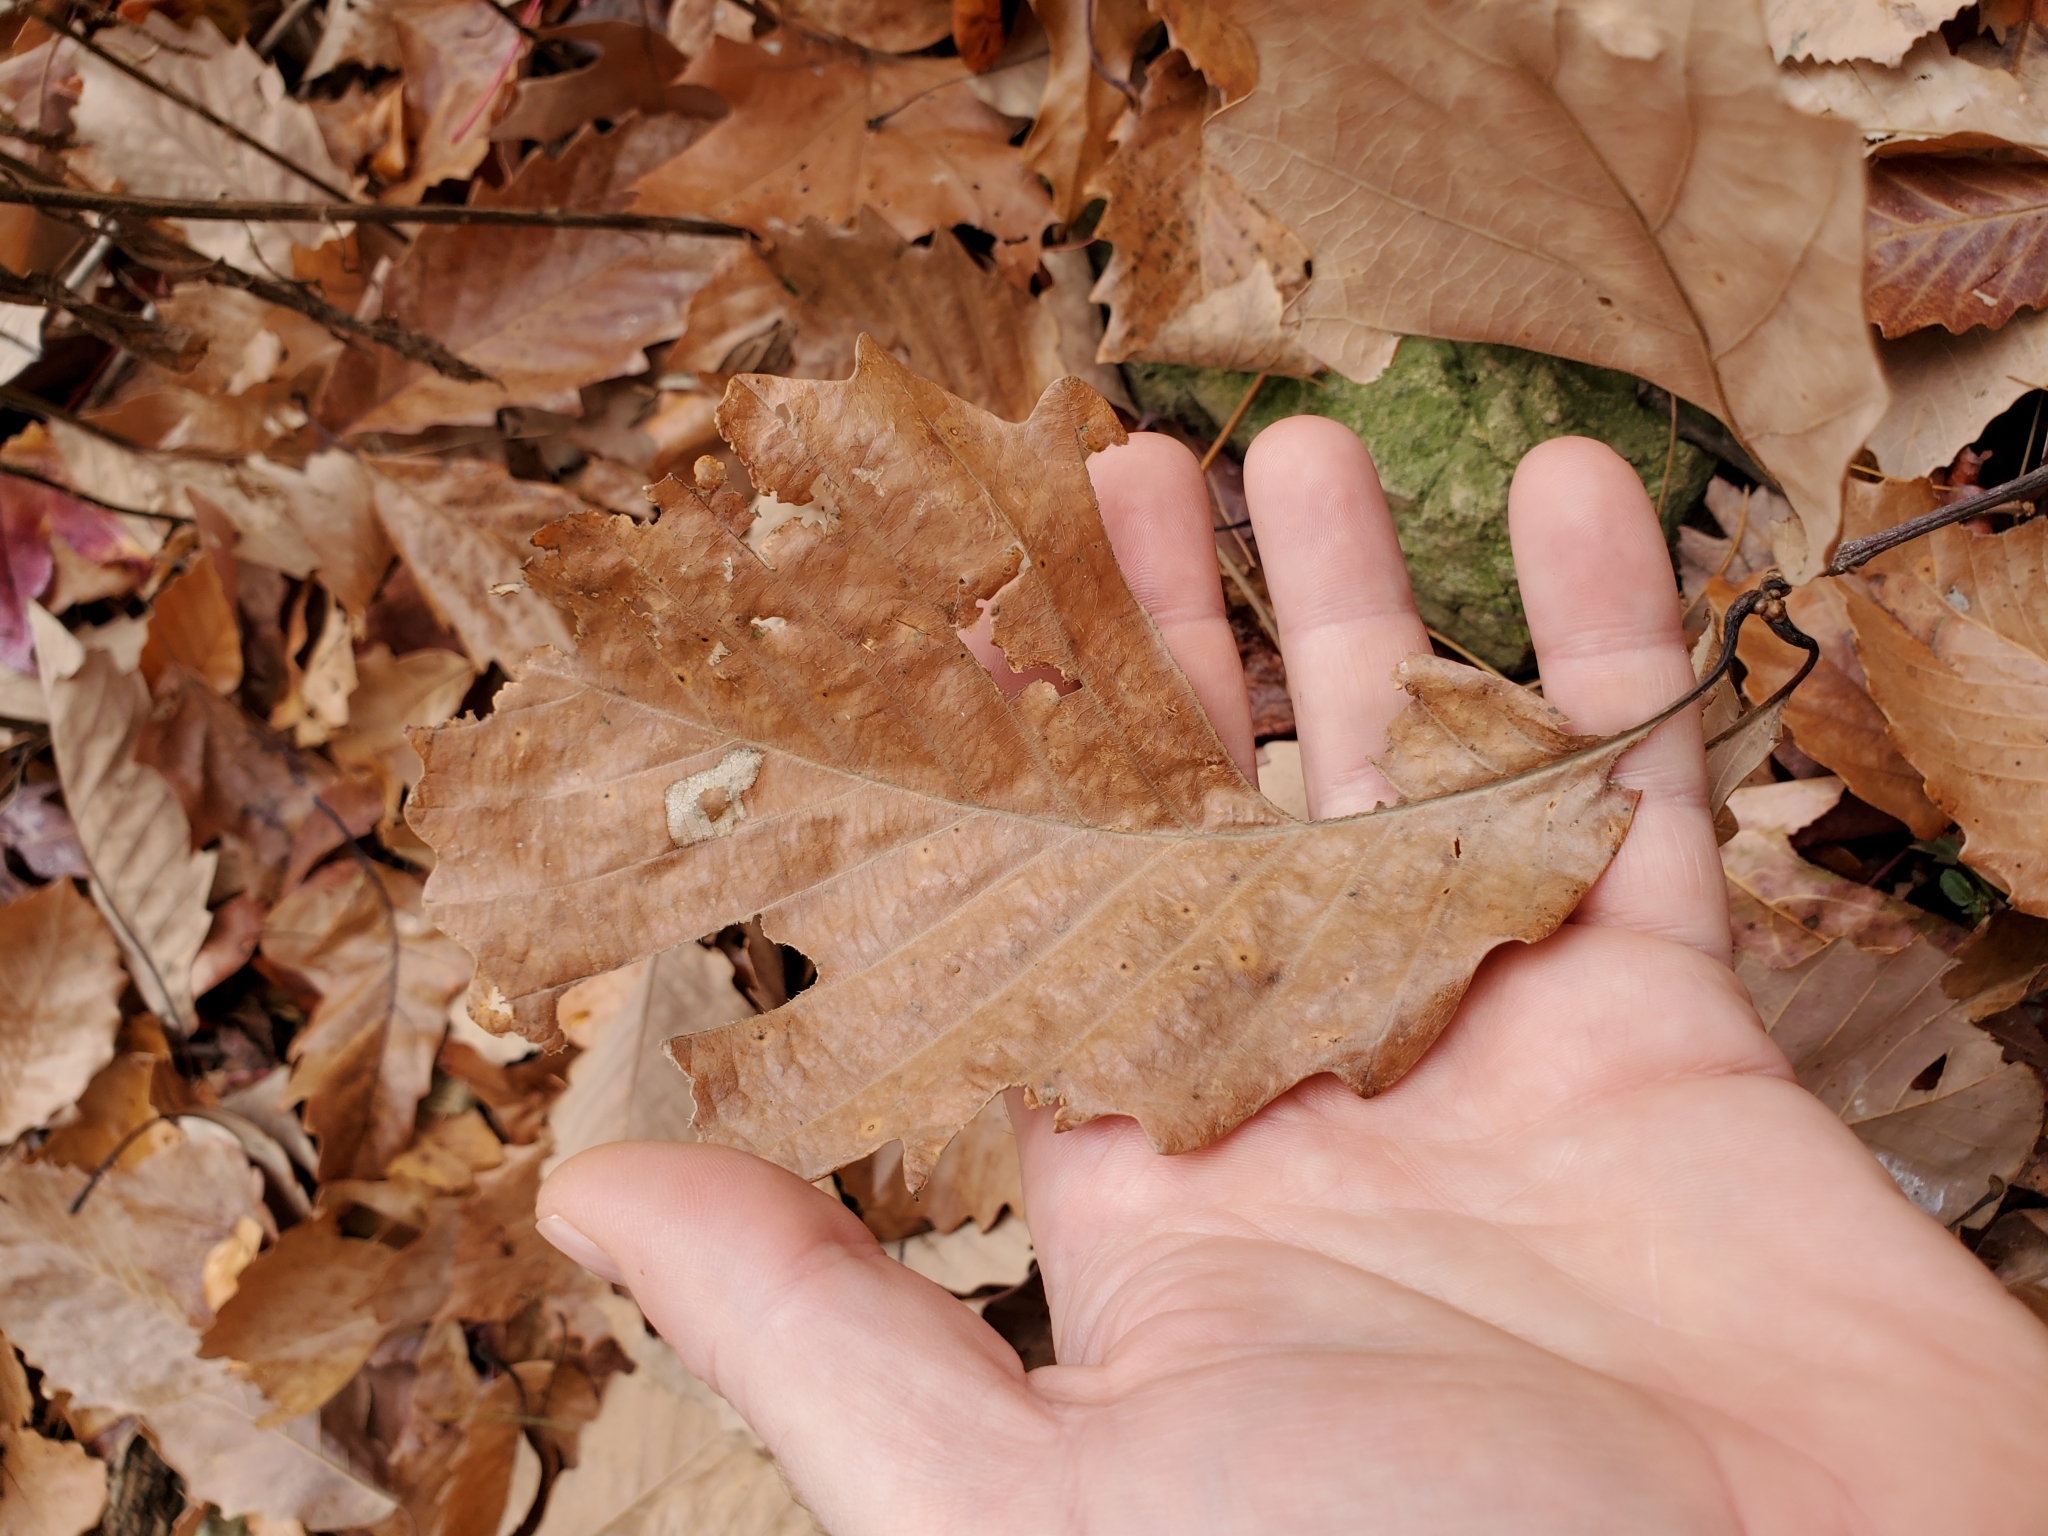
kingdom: Animalia
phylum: Arthropoda
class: Insecta
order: Lepidoptera
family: Gracillariidae
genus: Phyllonorycter
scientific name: Phyllonorycter basistrigella
